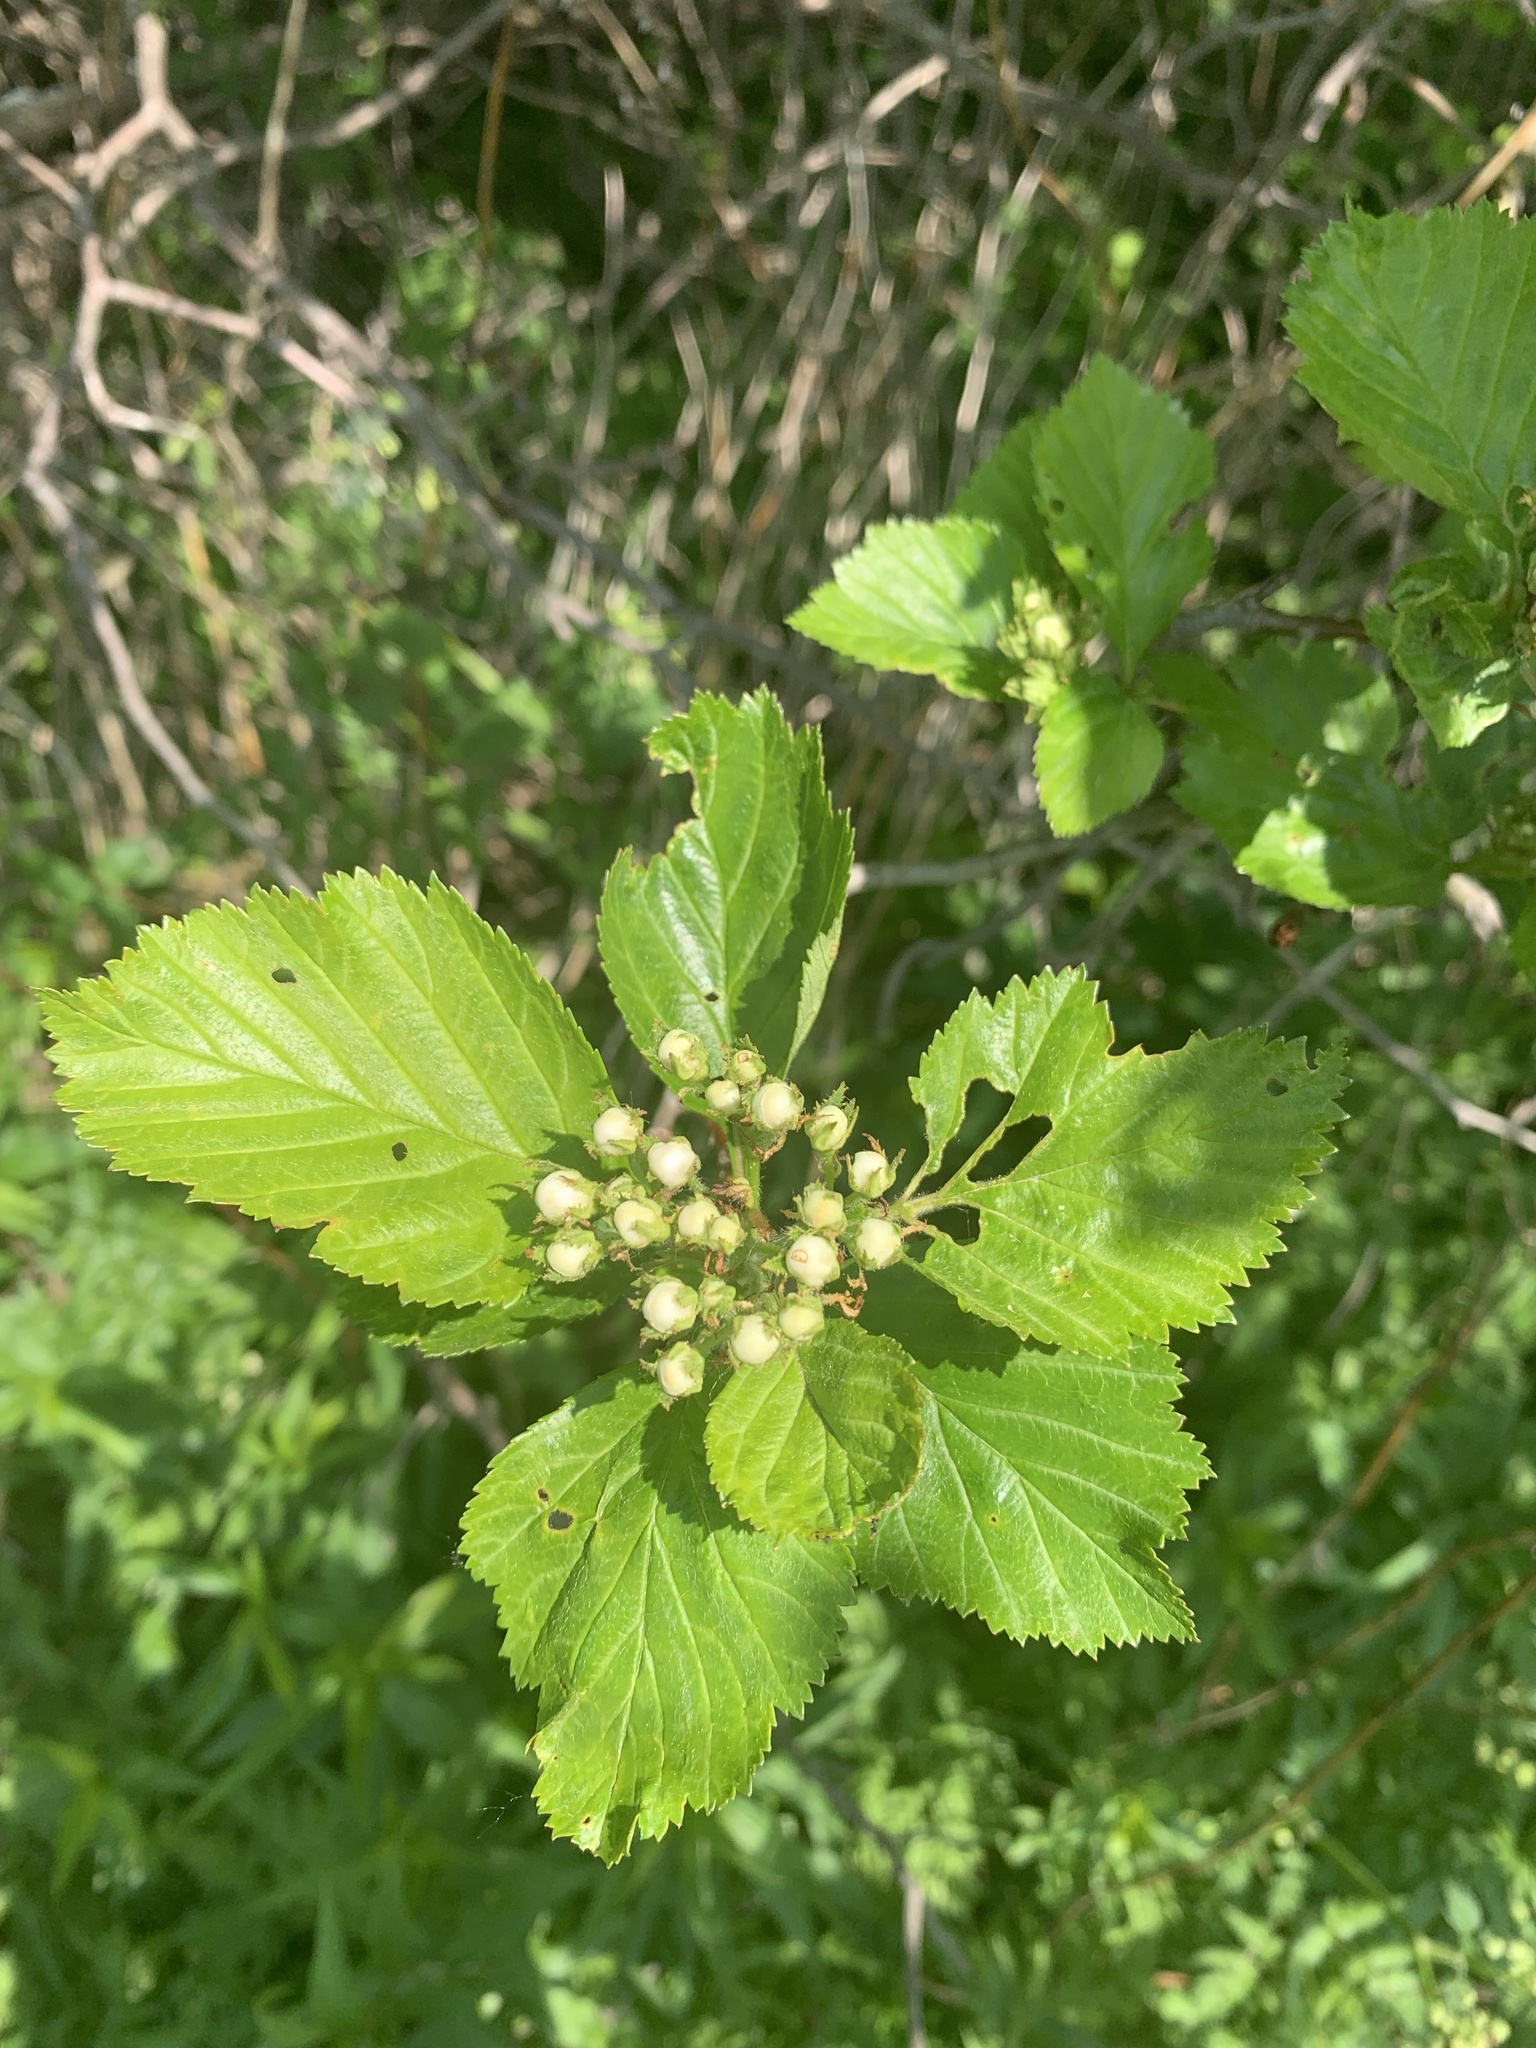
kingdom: Plantae
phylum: Tracheophyta
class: Magnoliopsida
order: Rosales
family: Rosaceae
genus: Crataegus
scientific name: Crataegus macracantha
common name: Large-thorn hawthorn
